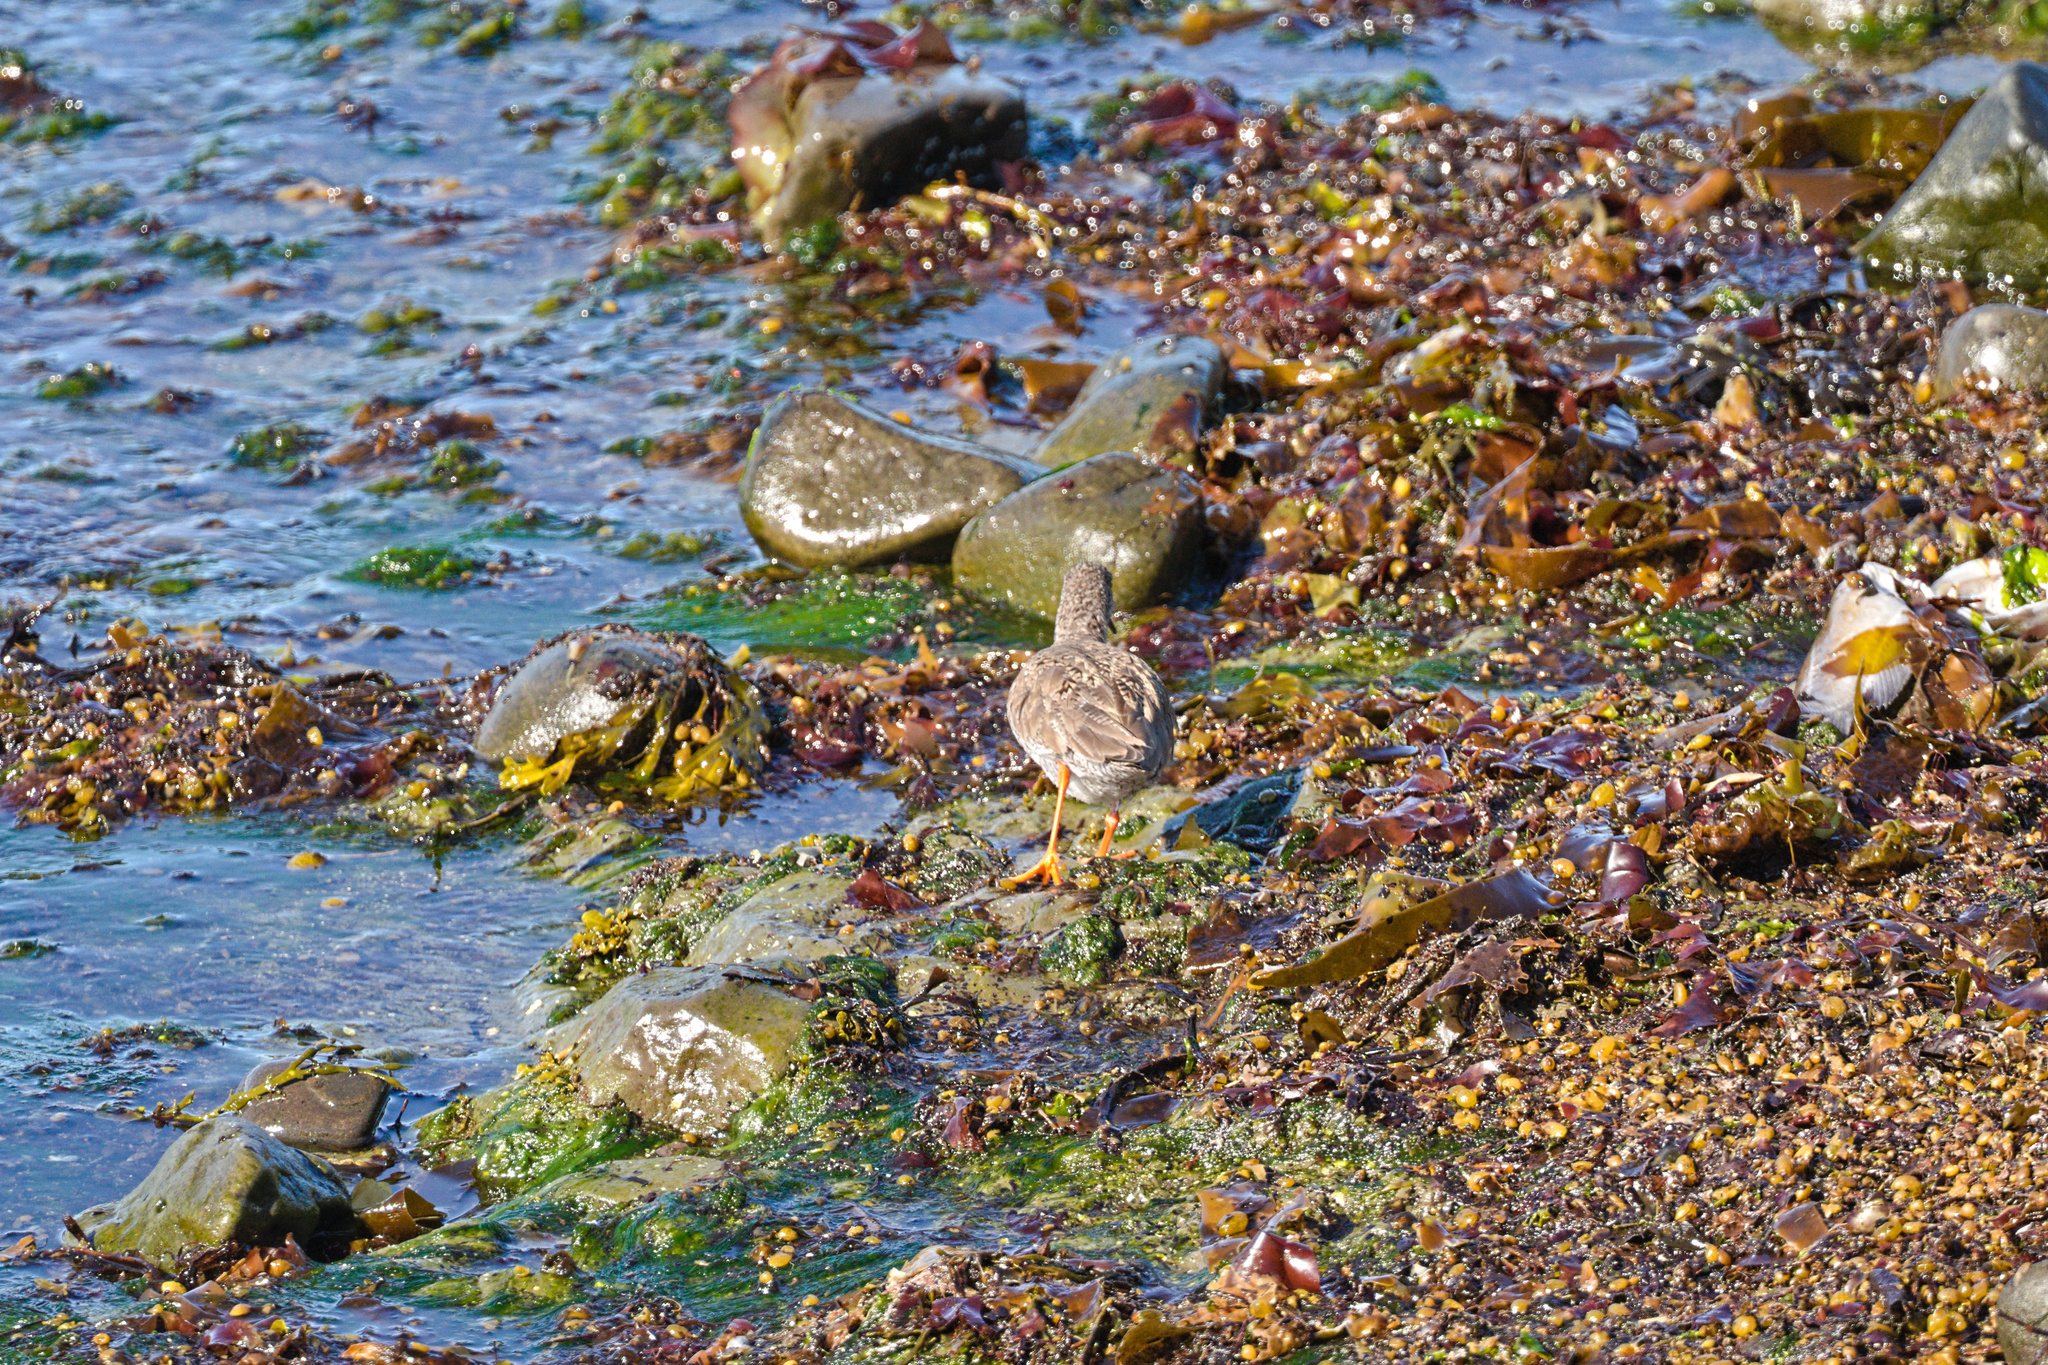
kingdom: Animalia
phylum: Chordata
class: Aves
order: Charadriiformes
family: Scolopacidae
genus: Tringa
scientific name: Tringa totanus
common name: Common redshank
